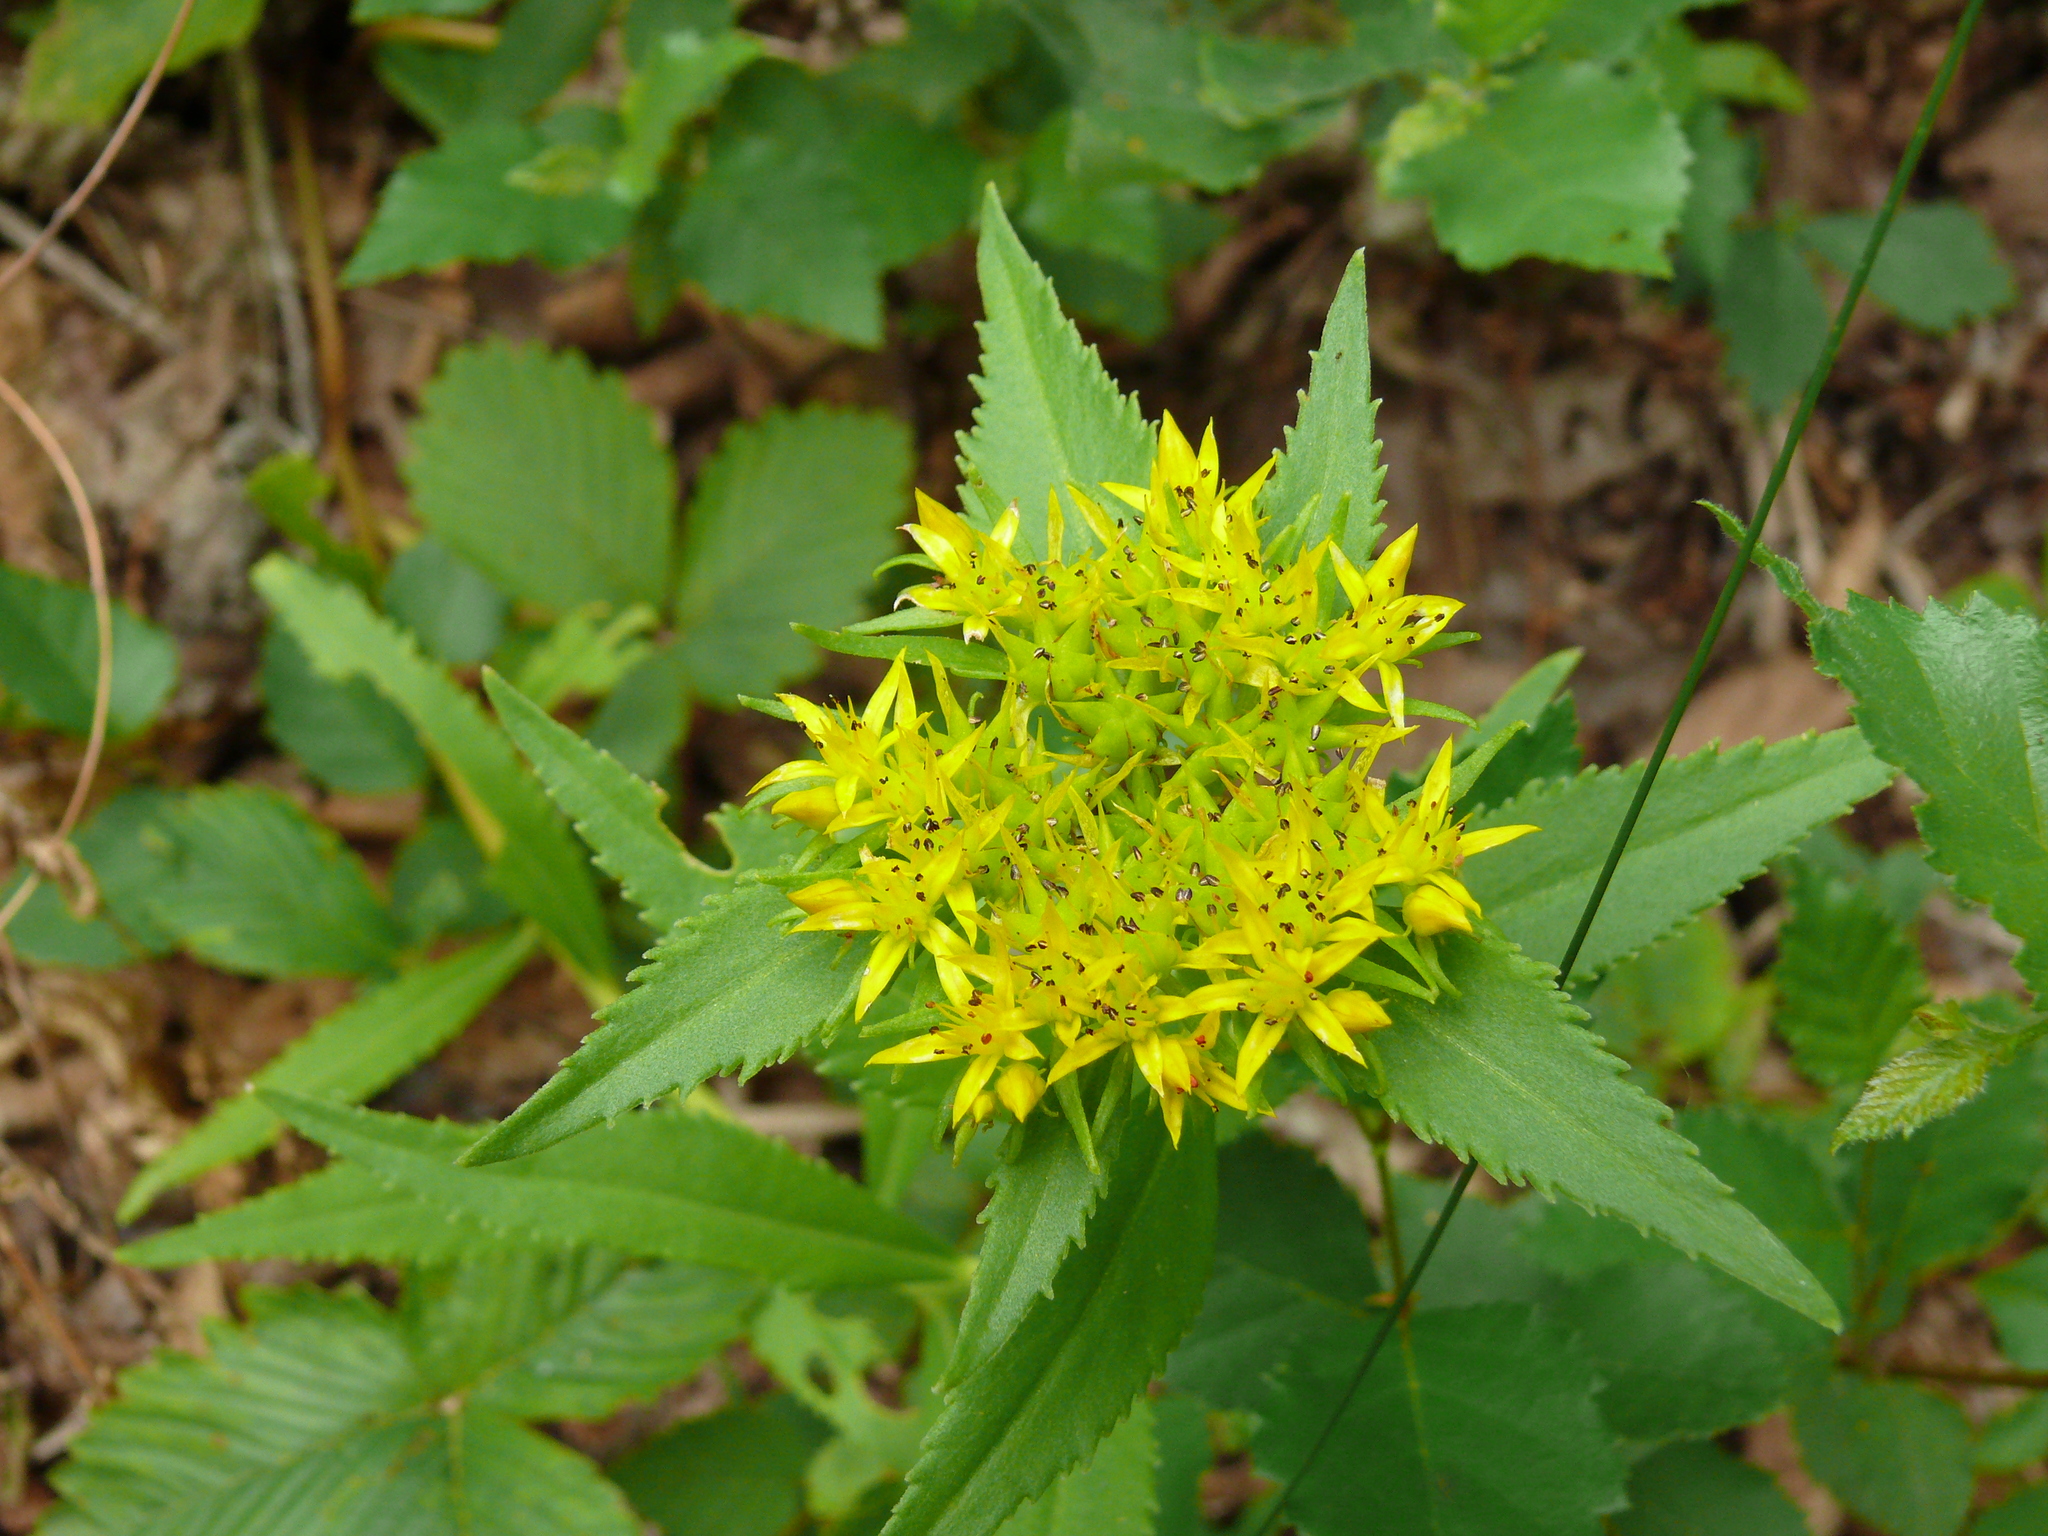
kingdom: Plantae
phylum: Tracheophyta
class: Magnoliopsida
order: Saxifragales
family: Crassulaceae
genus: Phedimus
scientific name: Phedimus aizoon
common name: Orpin aizoon
